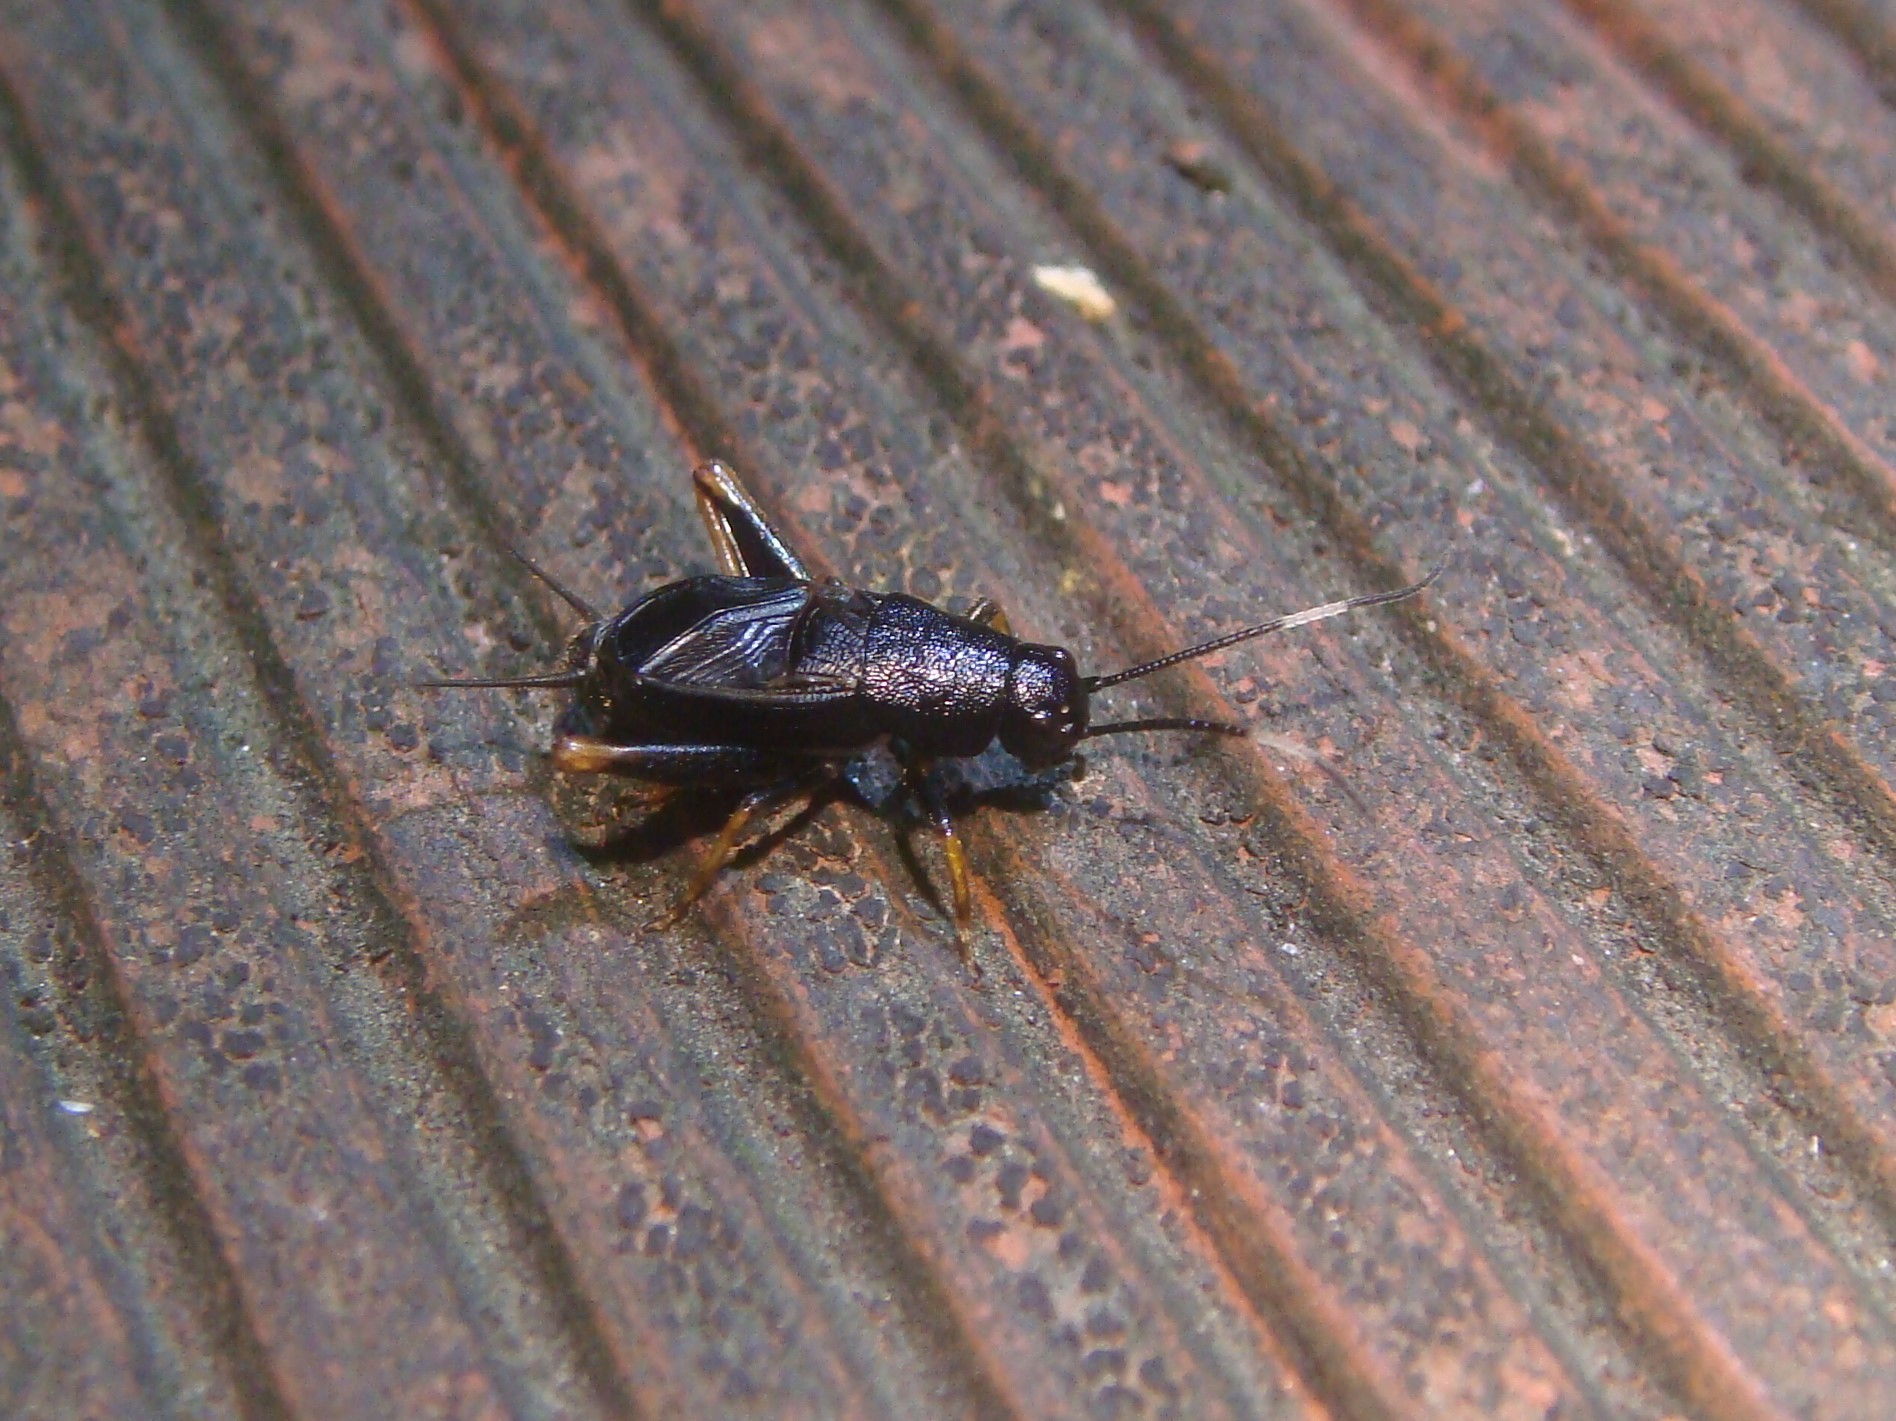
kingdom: Animalia
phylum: Arthropoda
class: Insecta
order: Orthoptera
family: Gryllidae
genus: Sclerogryllus
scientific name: Sclerogryllus punctatus
